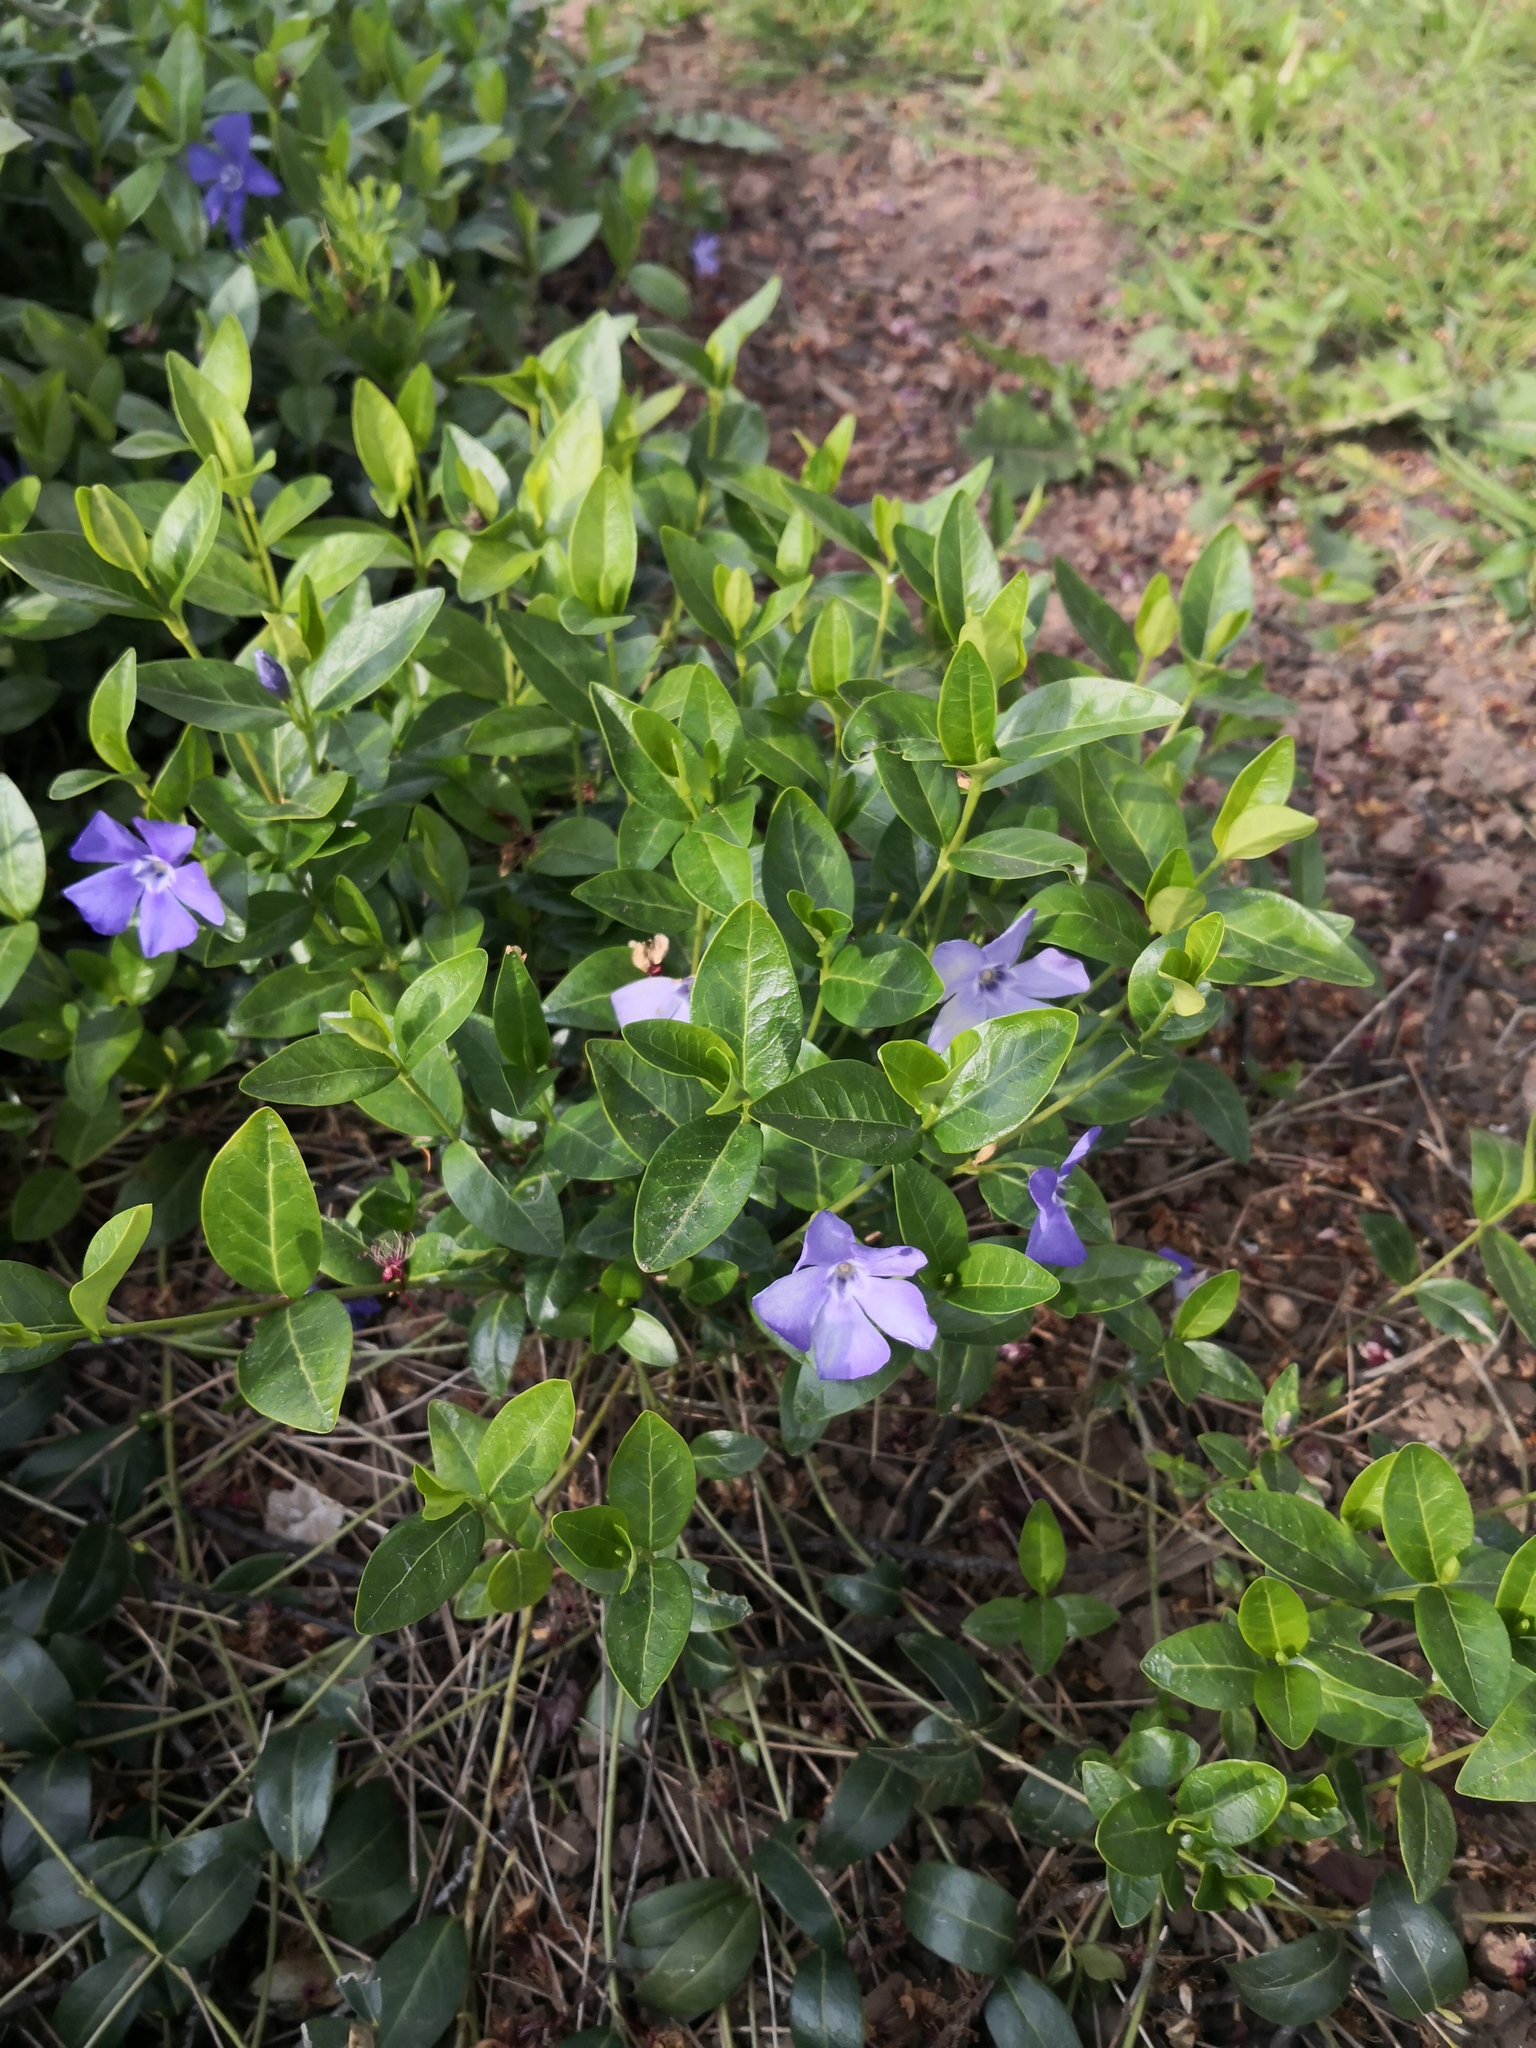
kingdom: Plantae
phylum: Tracheophyta
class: Magnoliopsida
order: Gentianales
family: Apocynaceae
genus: Vinca
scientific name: Vinca minor
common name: Lesser periwinkle
